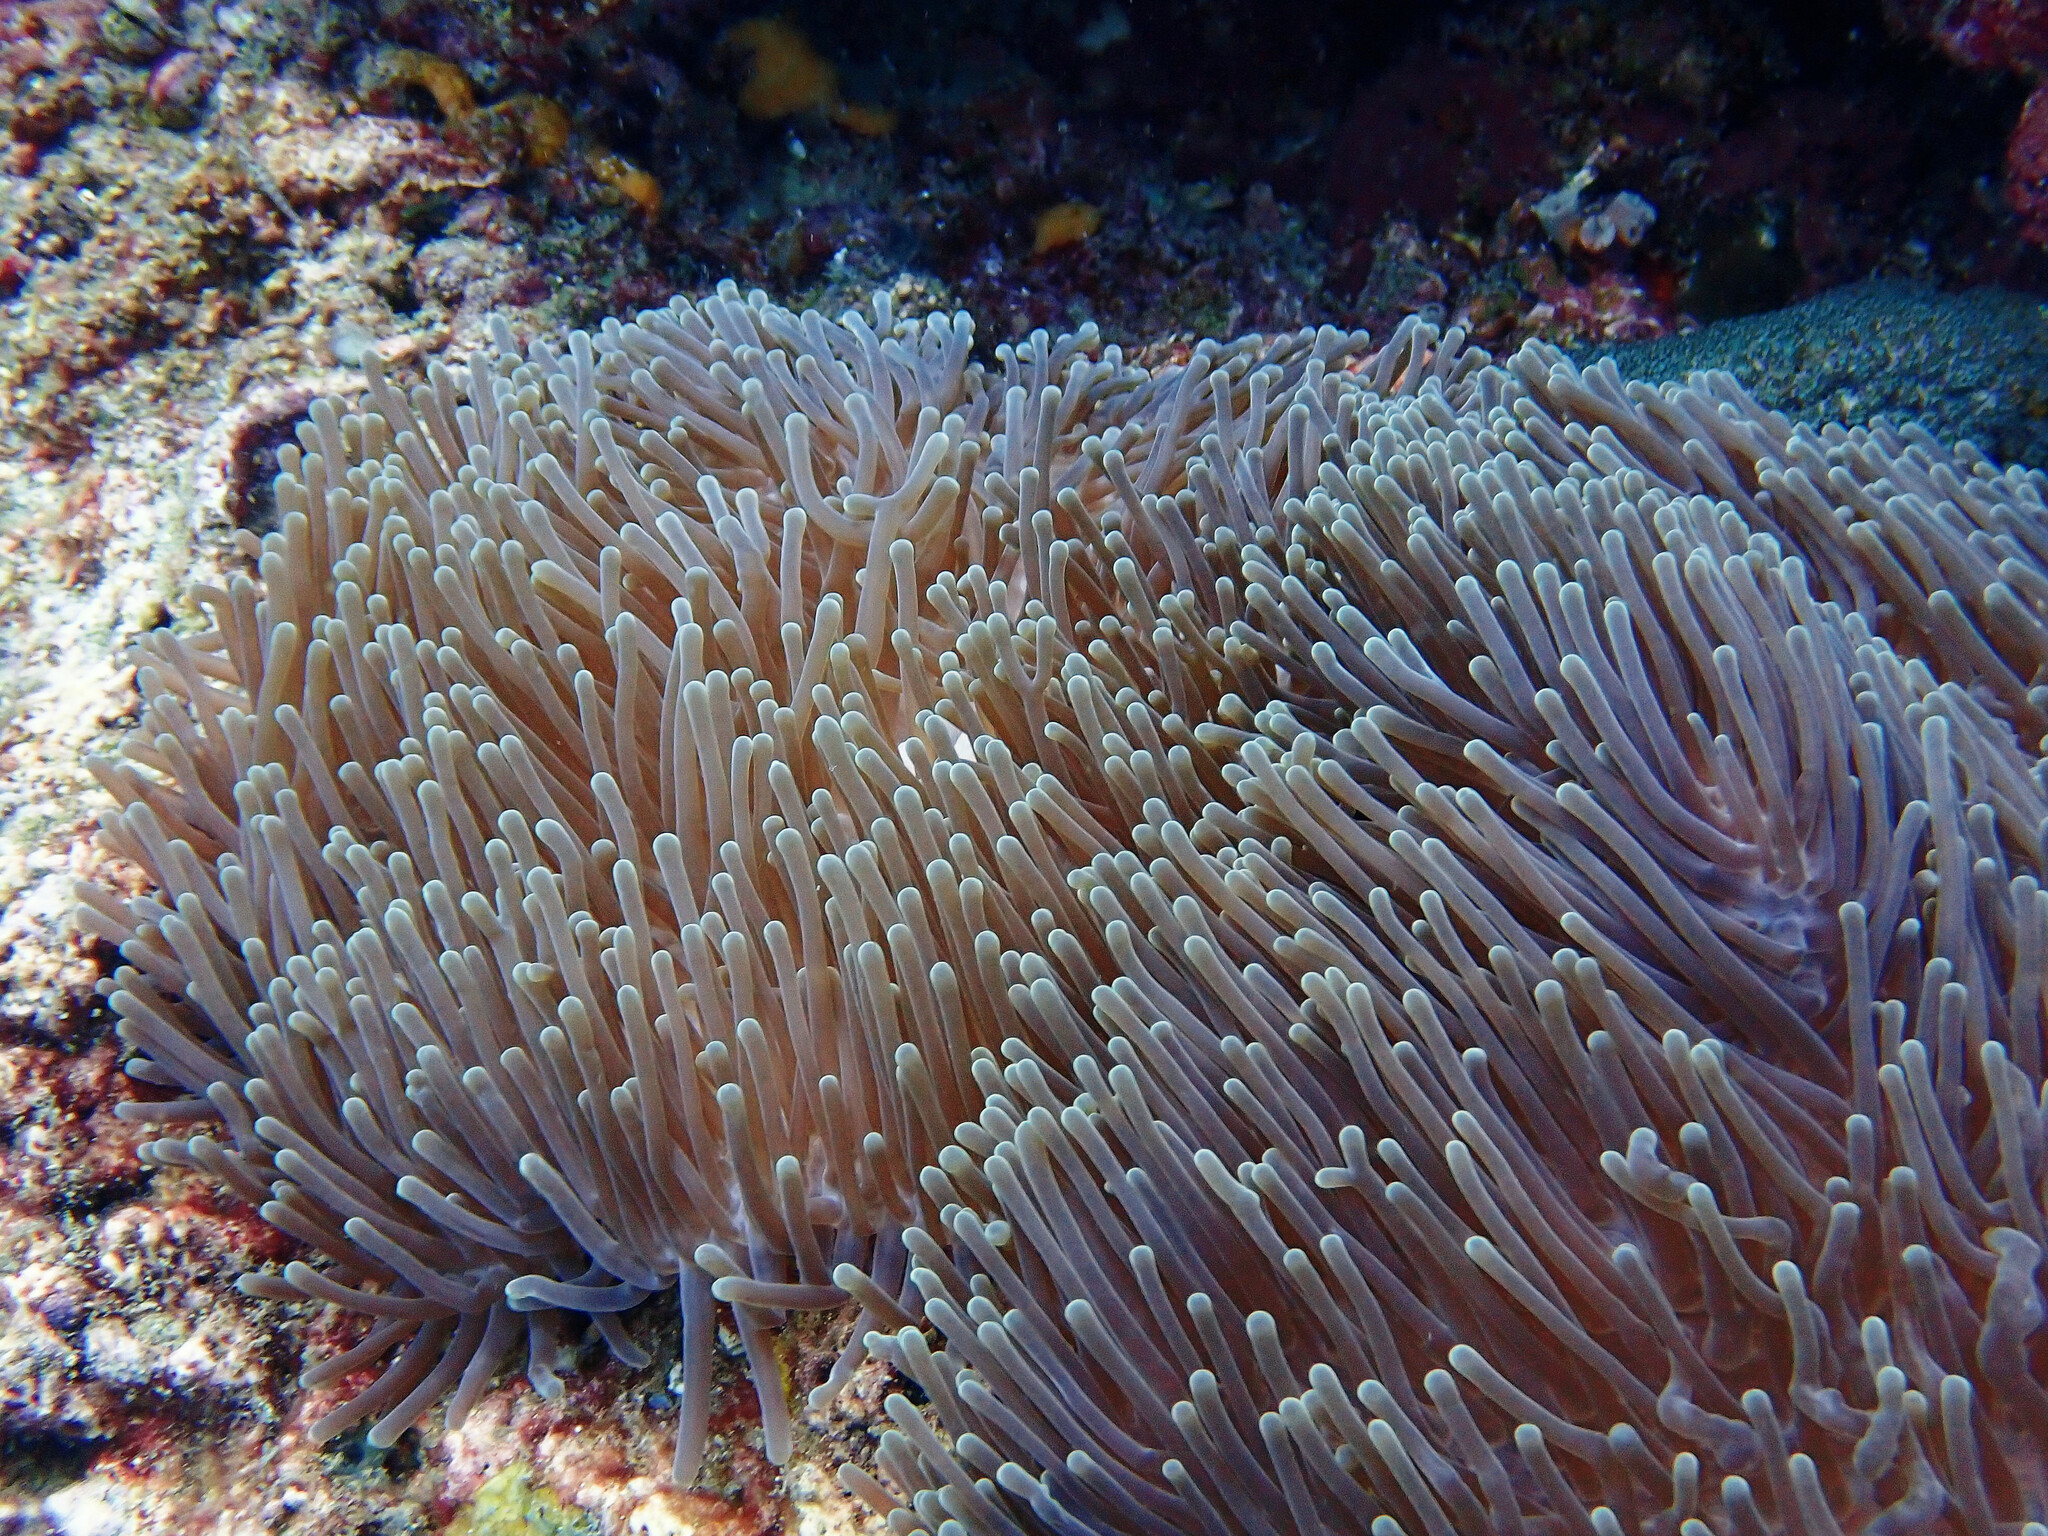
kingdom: Animalia
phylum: Cnidaria
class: Anthozoa
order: Actiniaria
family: Stichodactylidae
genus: Radianthus
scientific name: Radianthus magnifica
